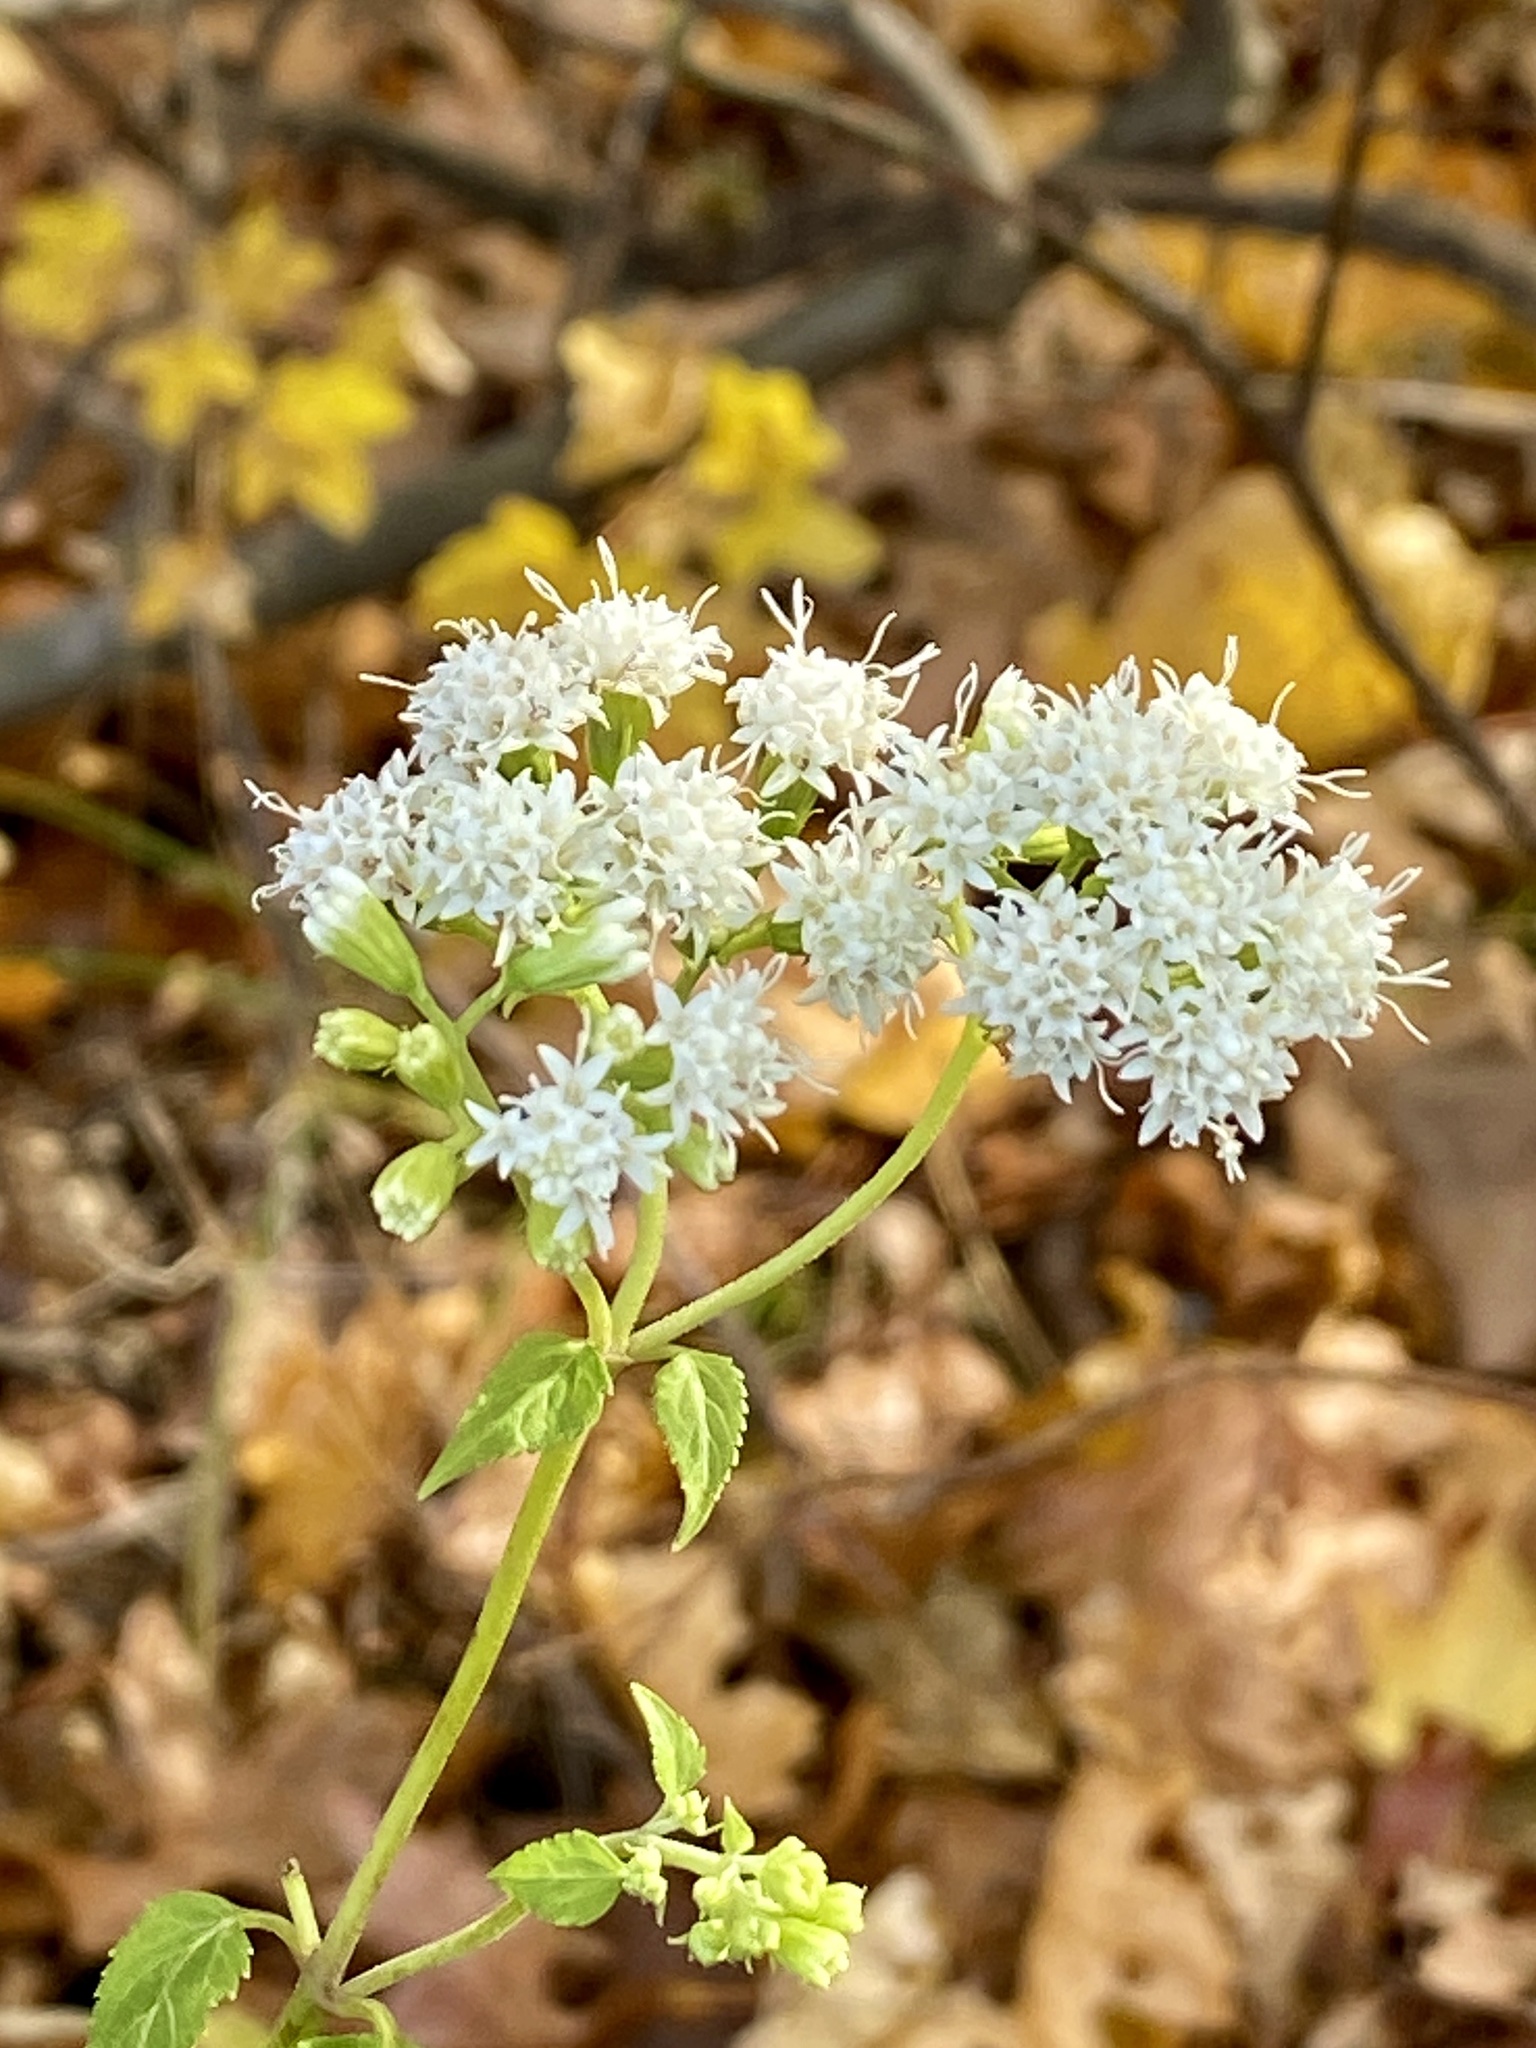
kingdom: Plantae
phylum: Tracheophyta
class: Magnoliopsida
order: Asterales
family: Asteraceae
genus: Ageratina
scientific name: Ageratina altissima
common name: White snakeroot
